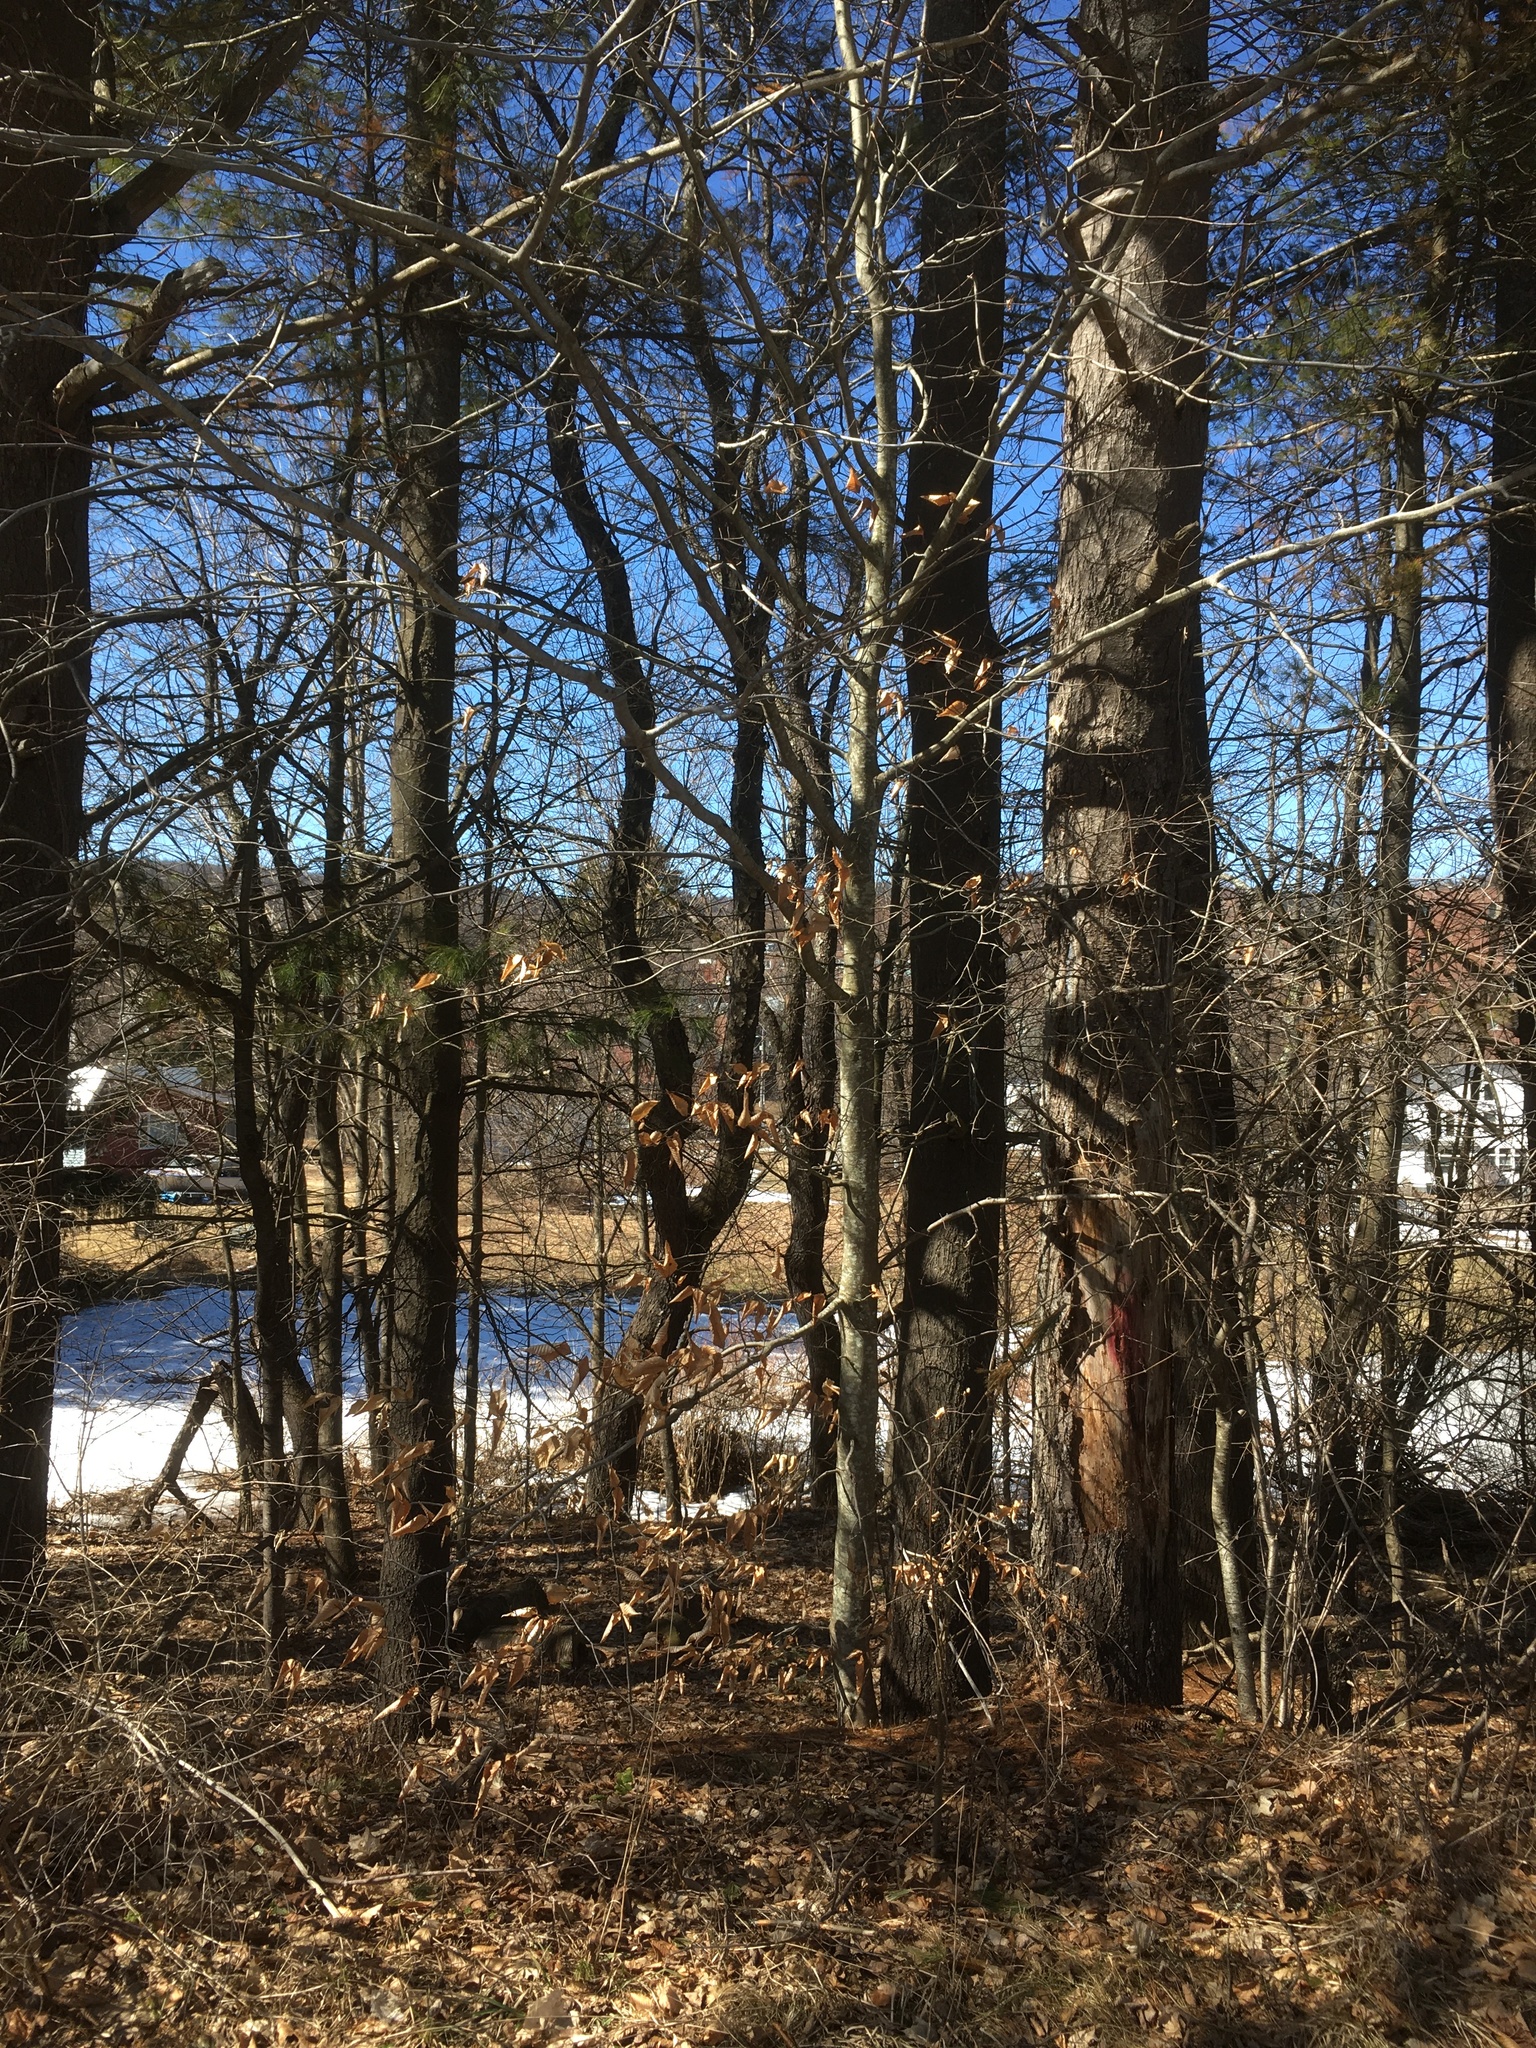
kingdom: Plantae
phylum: Tracheophyta
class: Magnoliopsida
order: Fagales
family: Fagaceae
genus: Fagus
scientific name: Fagus grandifolia
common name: American beech
